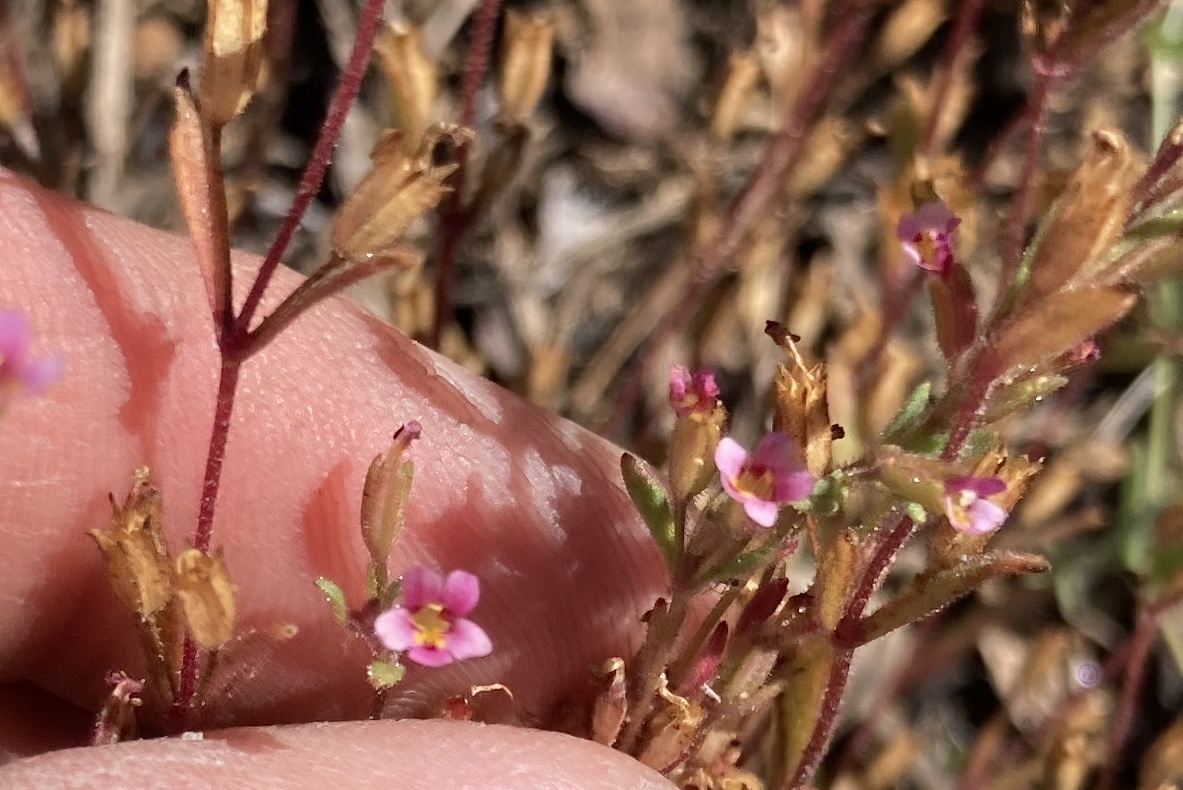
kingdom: Plantae
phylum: Tracheophyta
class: Magnoliopsida
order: Lamiales
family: Phrymaceae
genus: Erythranthe
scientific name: Erythranthe breweri
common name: Brewer's monkeyflower
